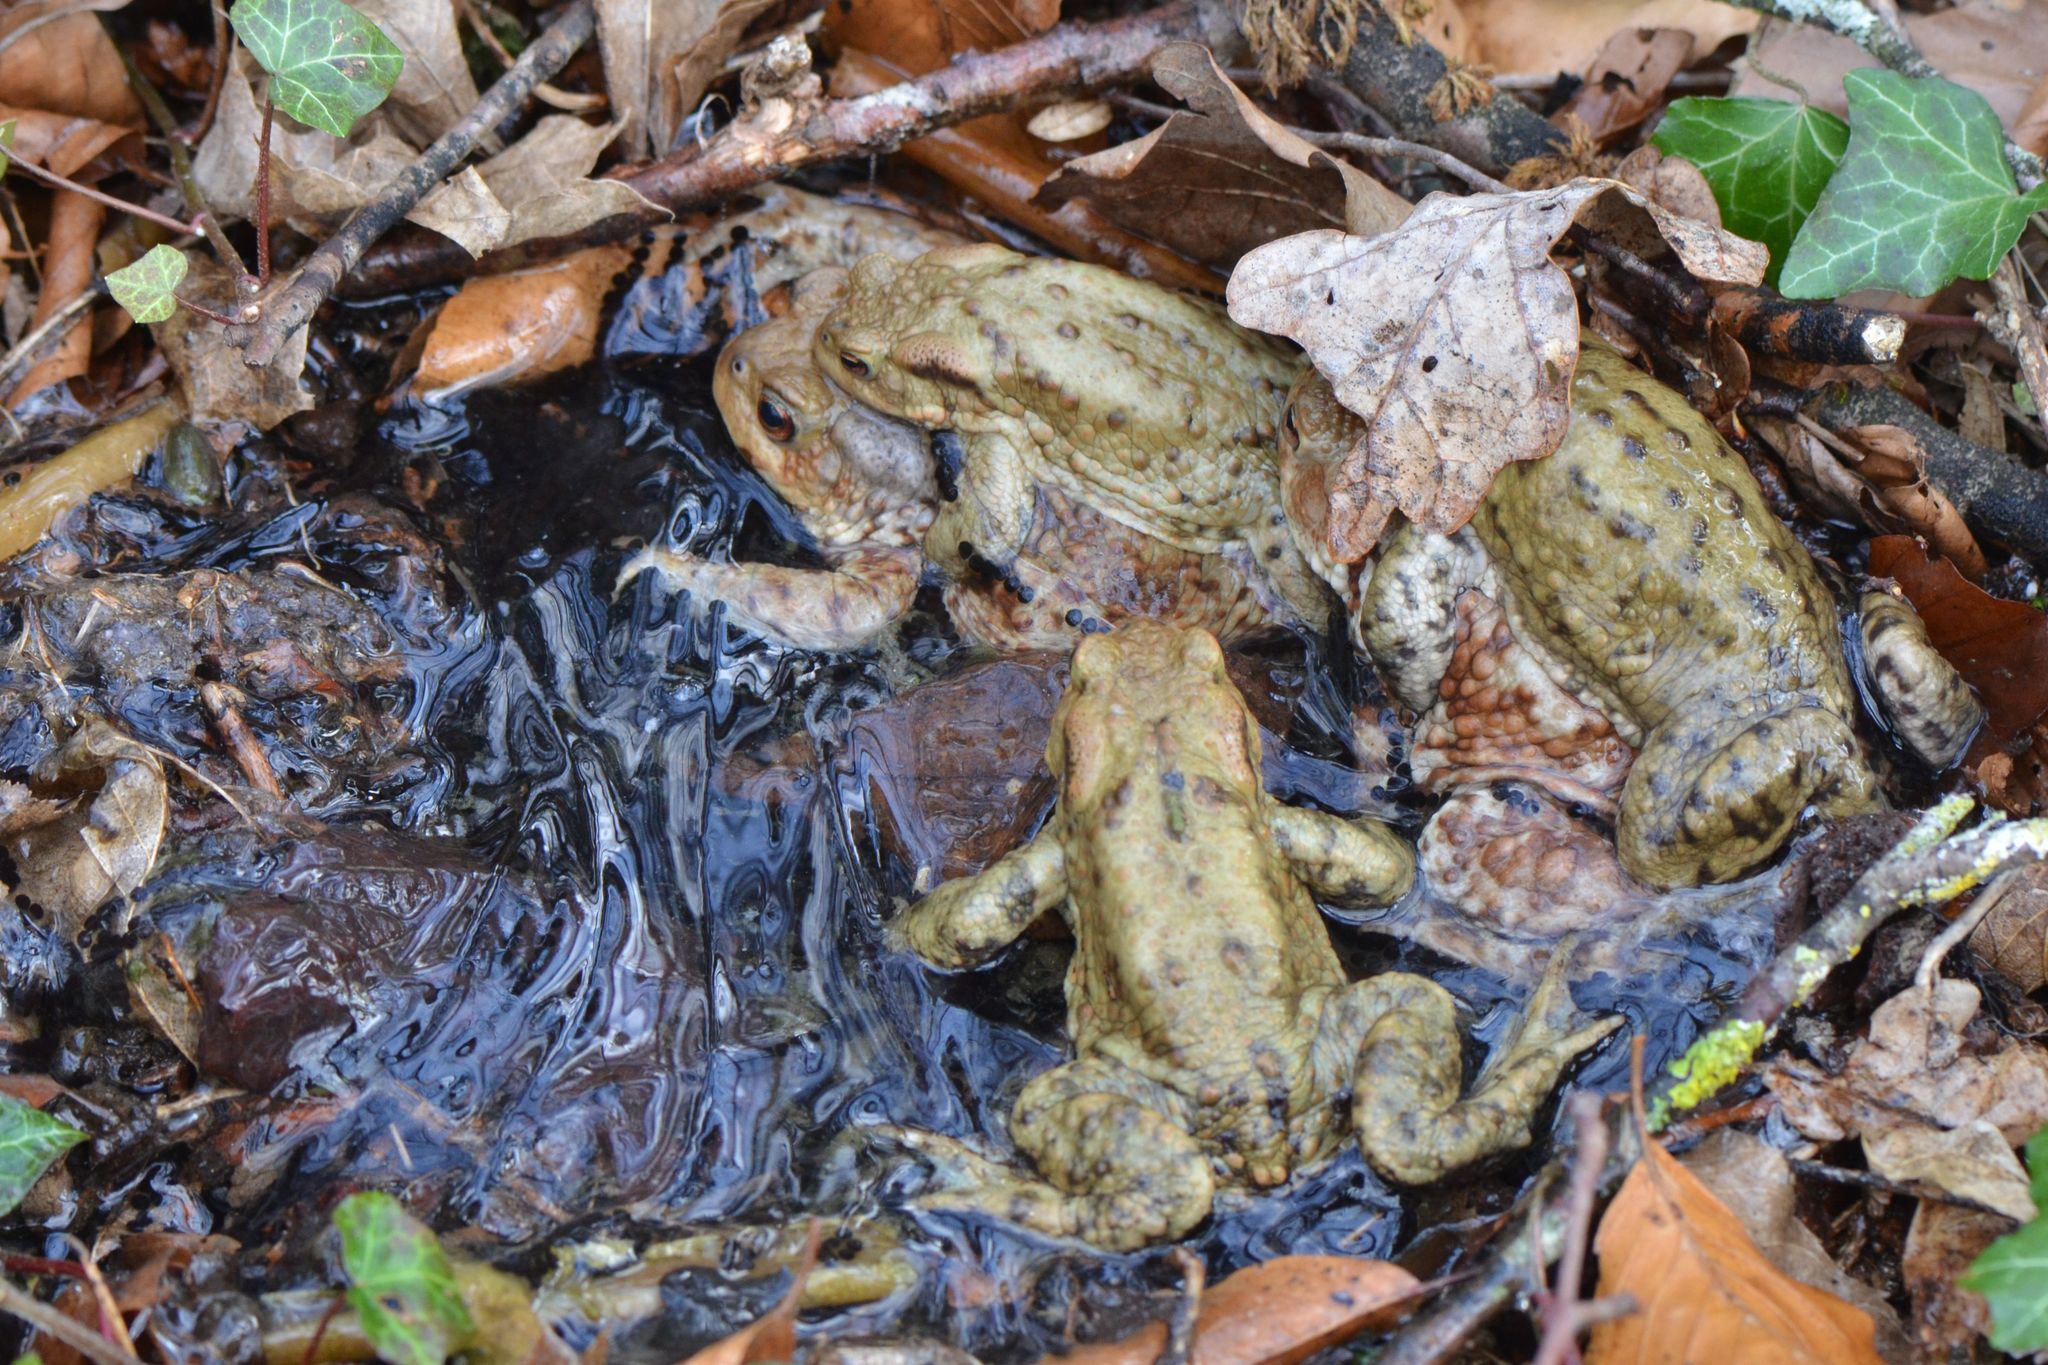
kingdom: Animalia
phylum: Chordata
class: Amphibia
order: Anura
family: Bufonidae
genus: Bufo
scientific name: Bufo bufo
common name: Common toad
